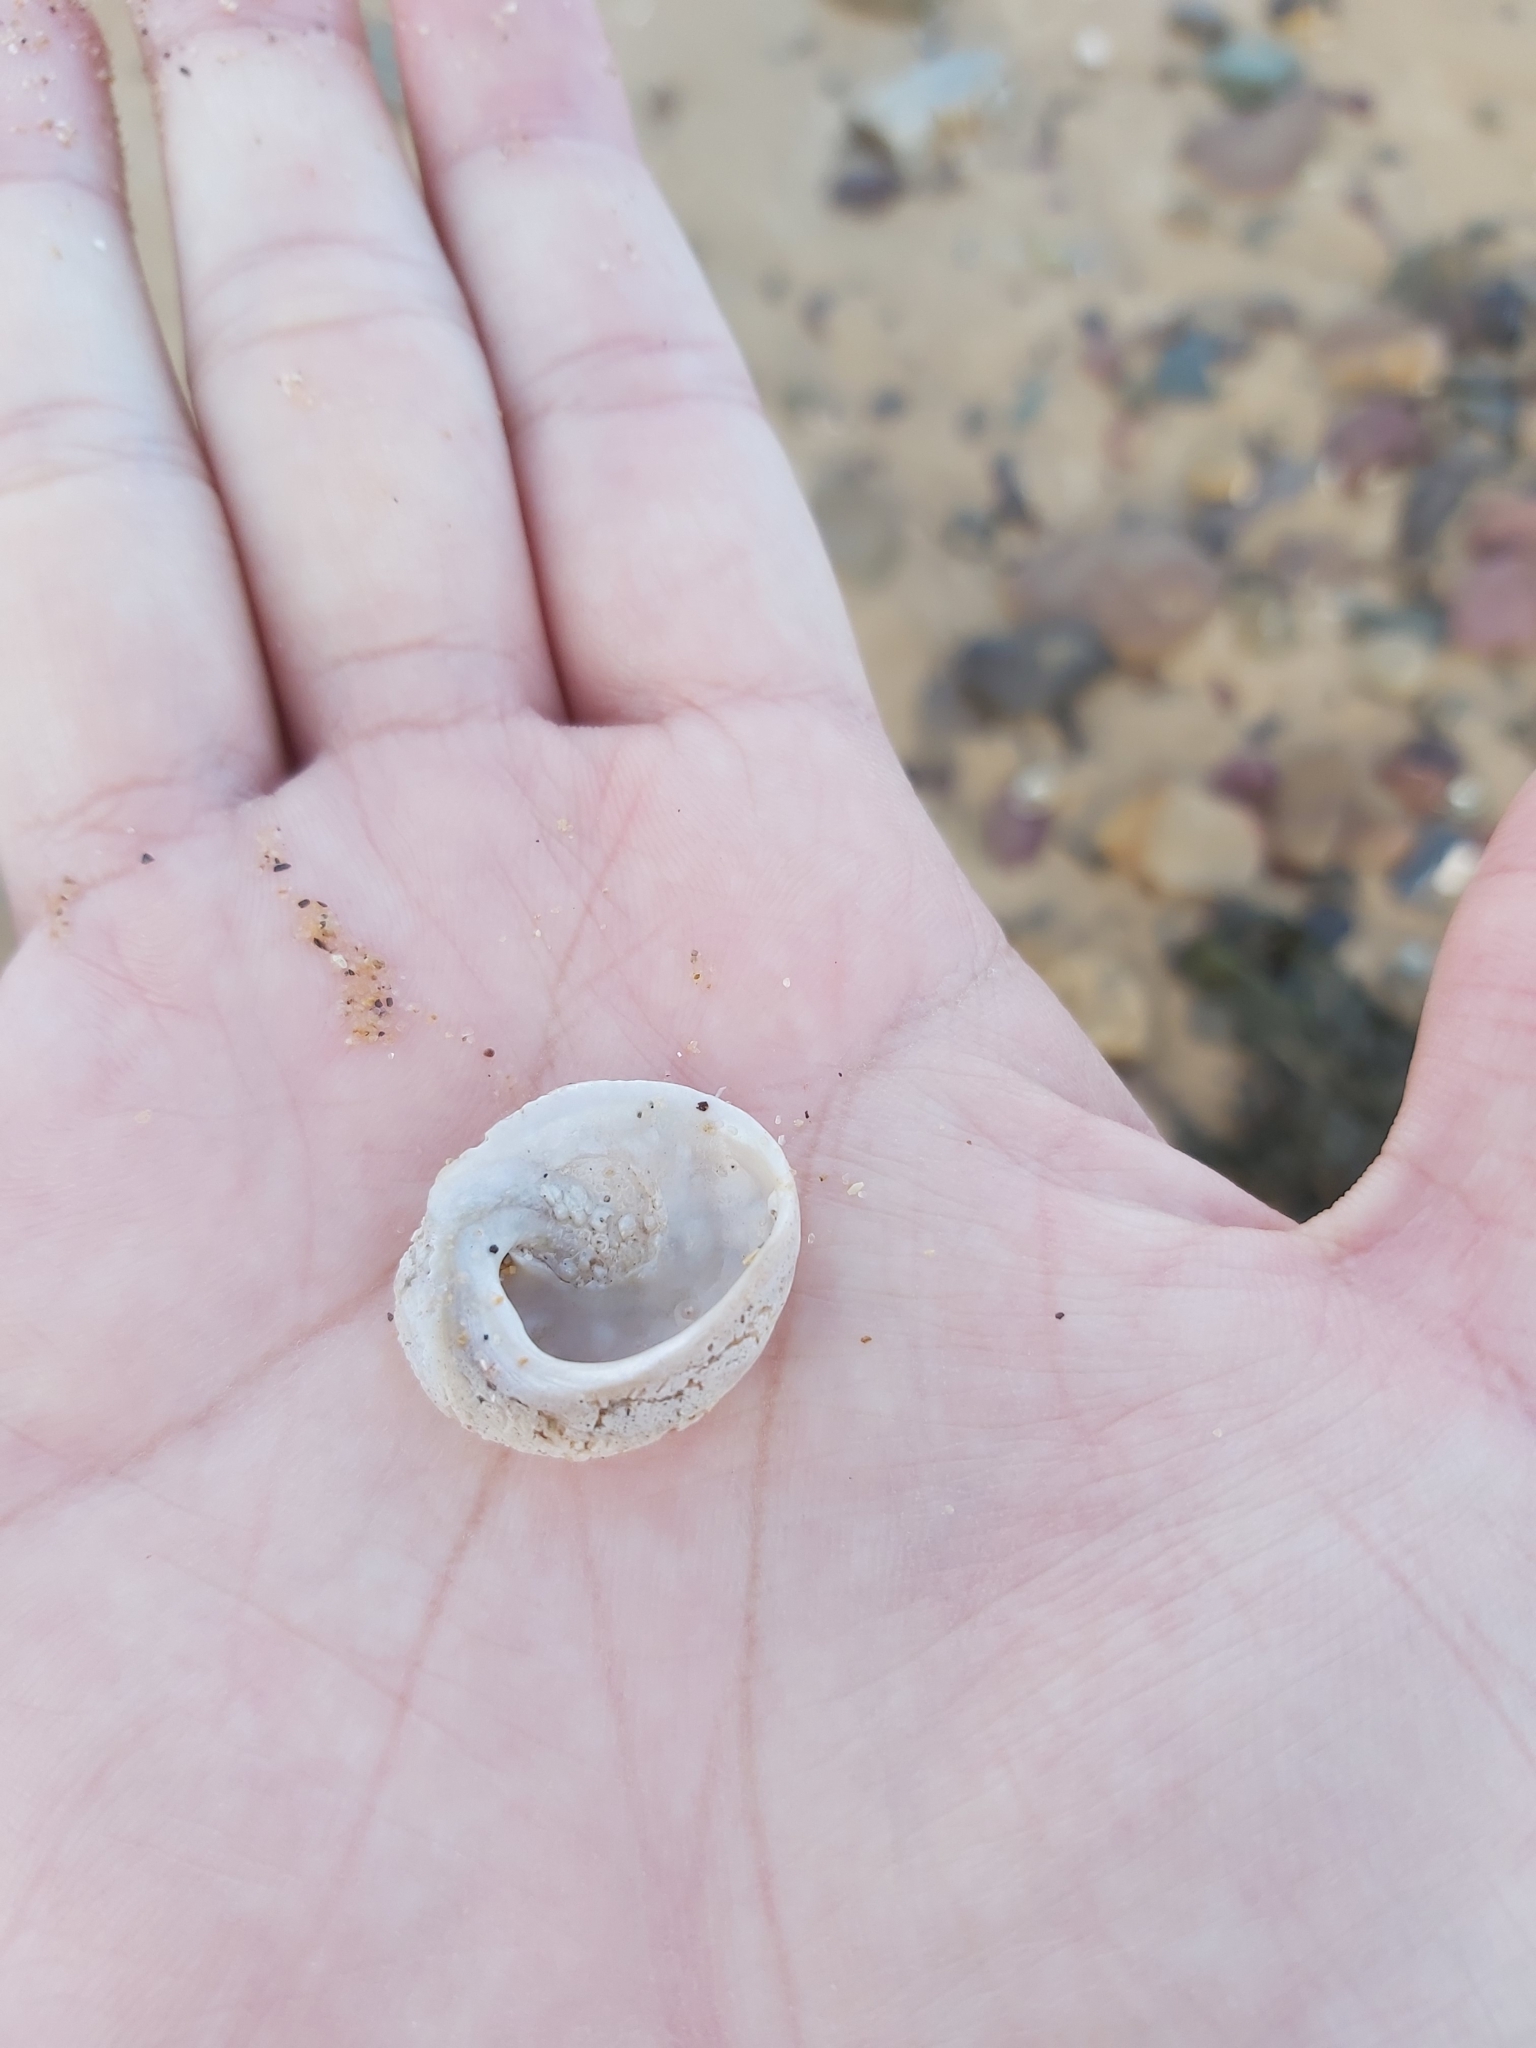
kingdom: Animalia
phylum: Mollusca
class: Gastropoda
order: Seguenziida
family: Chilodontaidae
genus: Granata
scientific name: Granata imbricata
